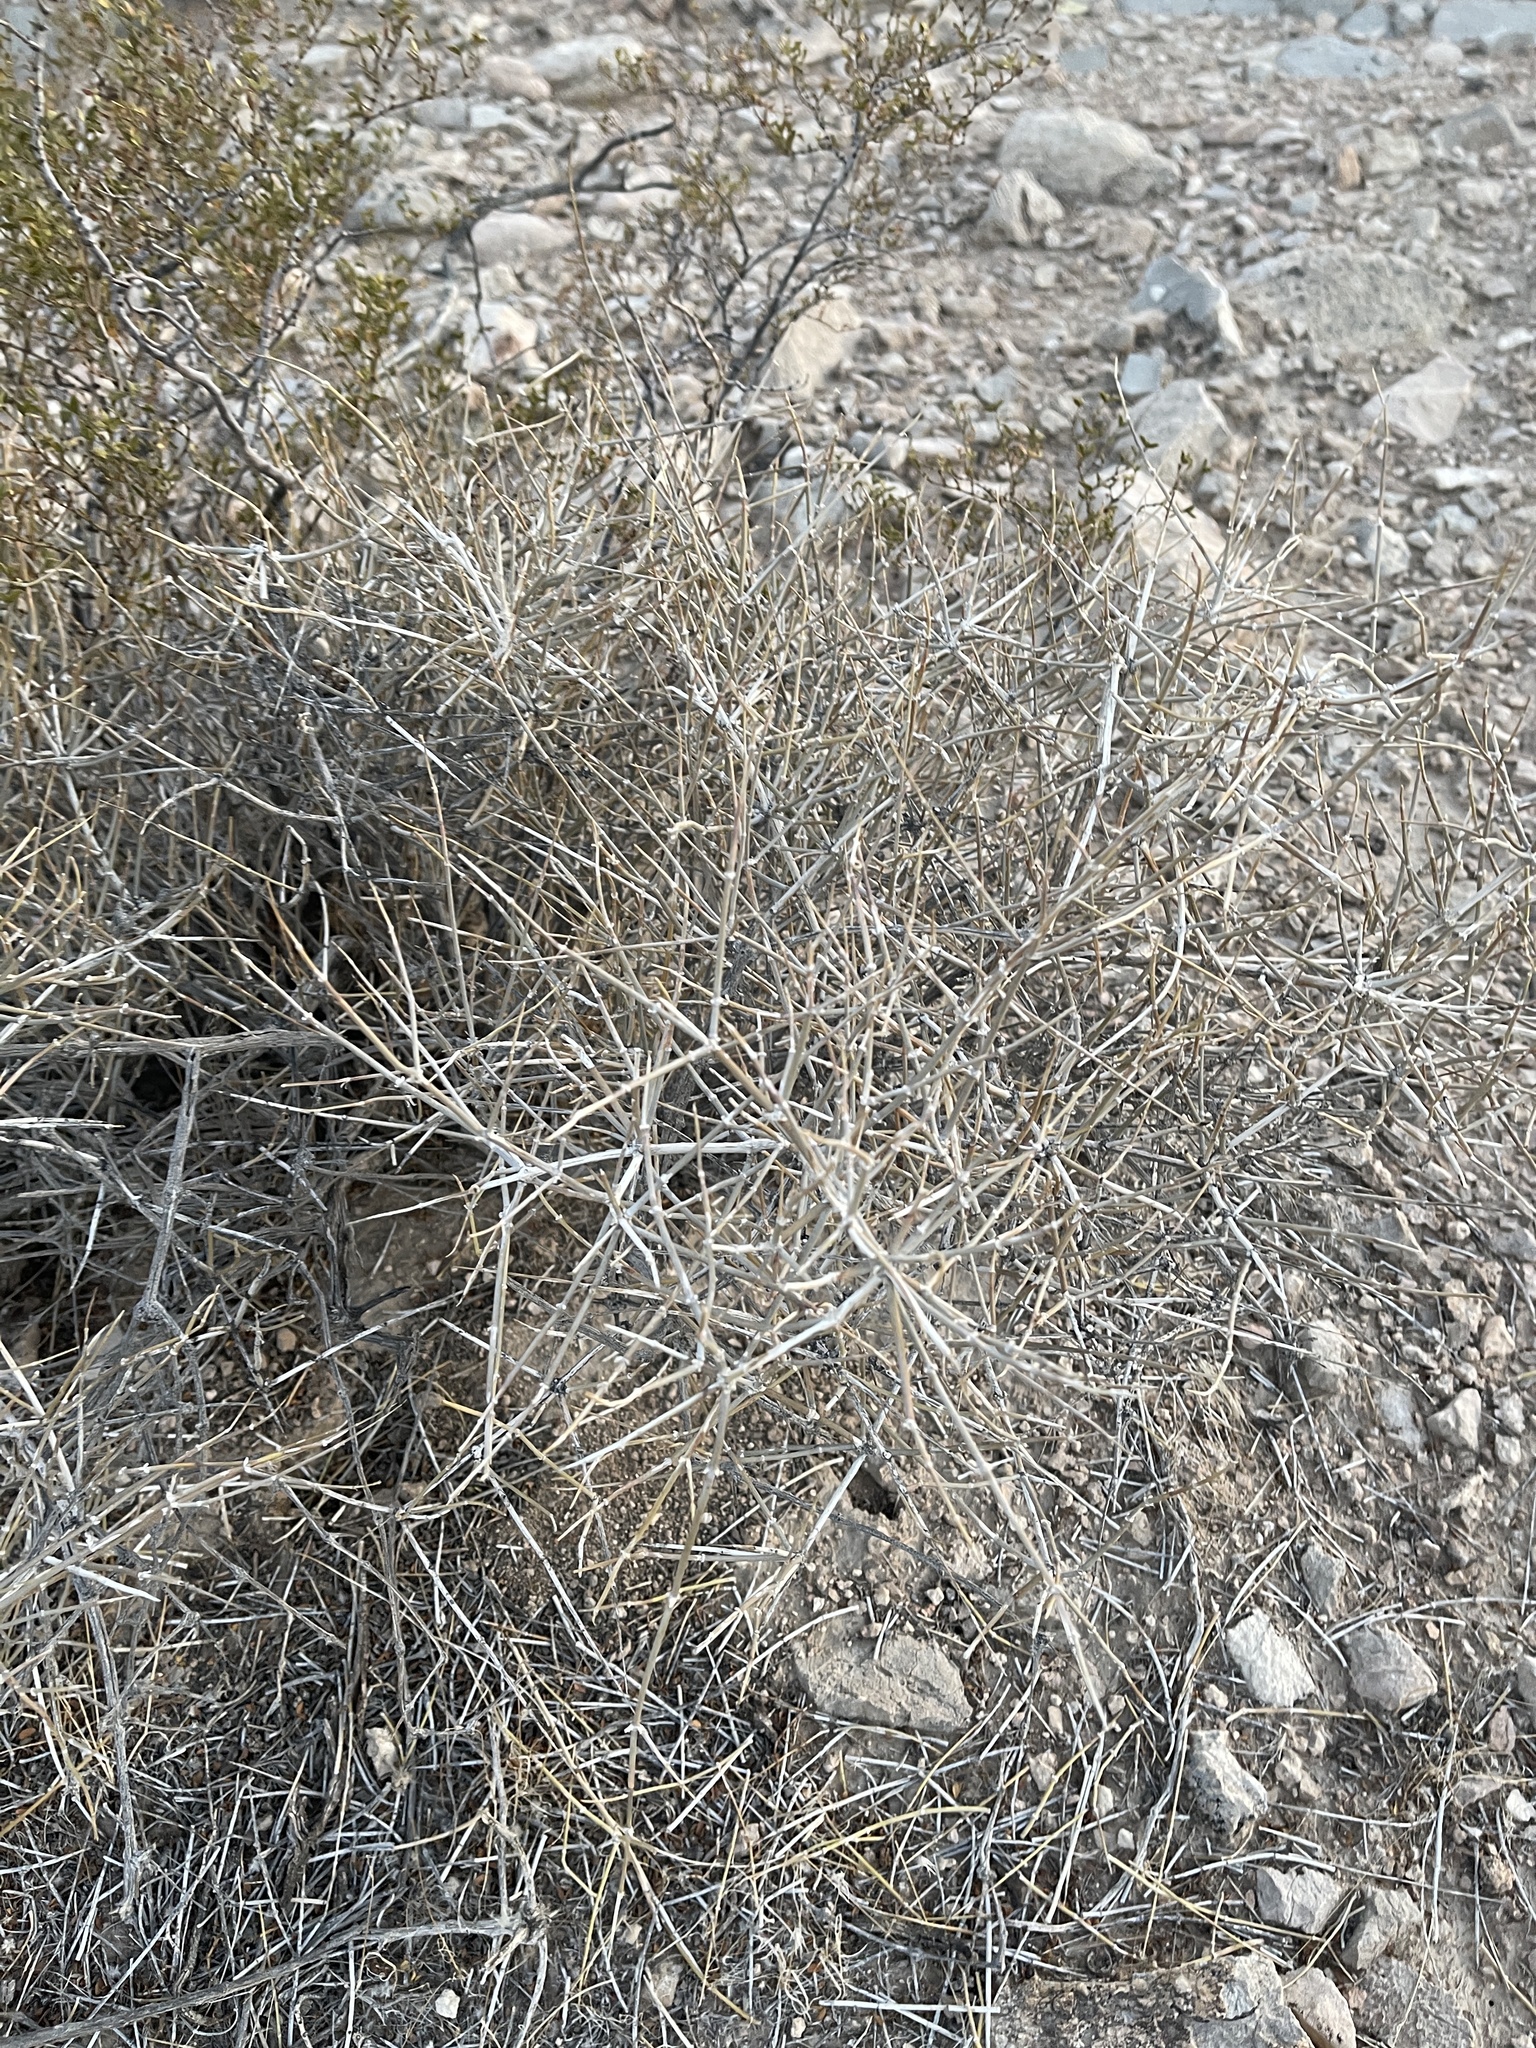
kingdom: Plantae
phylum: Tracheophyta
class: Gnetopsida
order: Ephedrales
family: Ephedraceae
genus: Ephedra
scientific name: Ephedra nevadensis
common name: Gray ephedra
